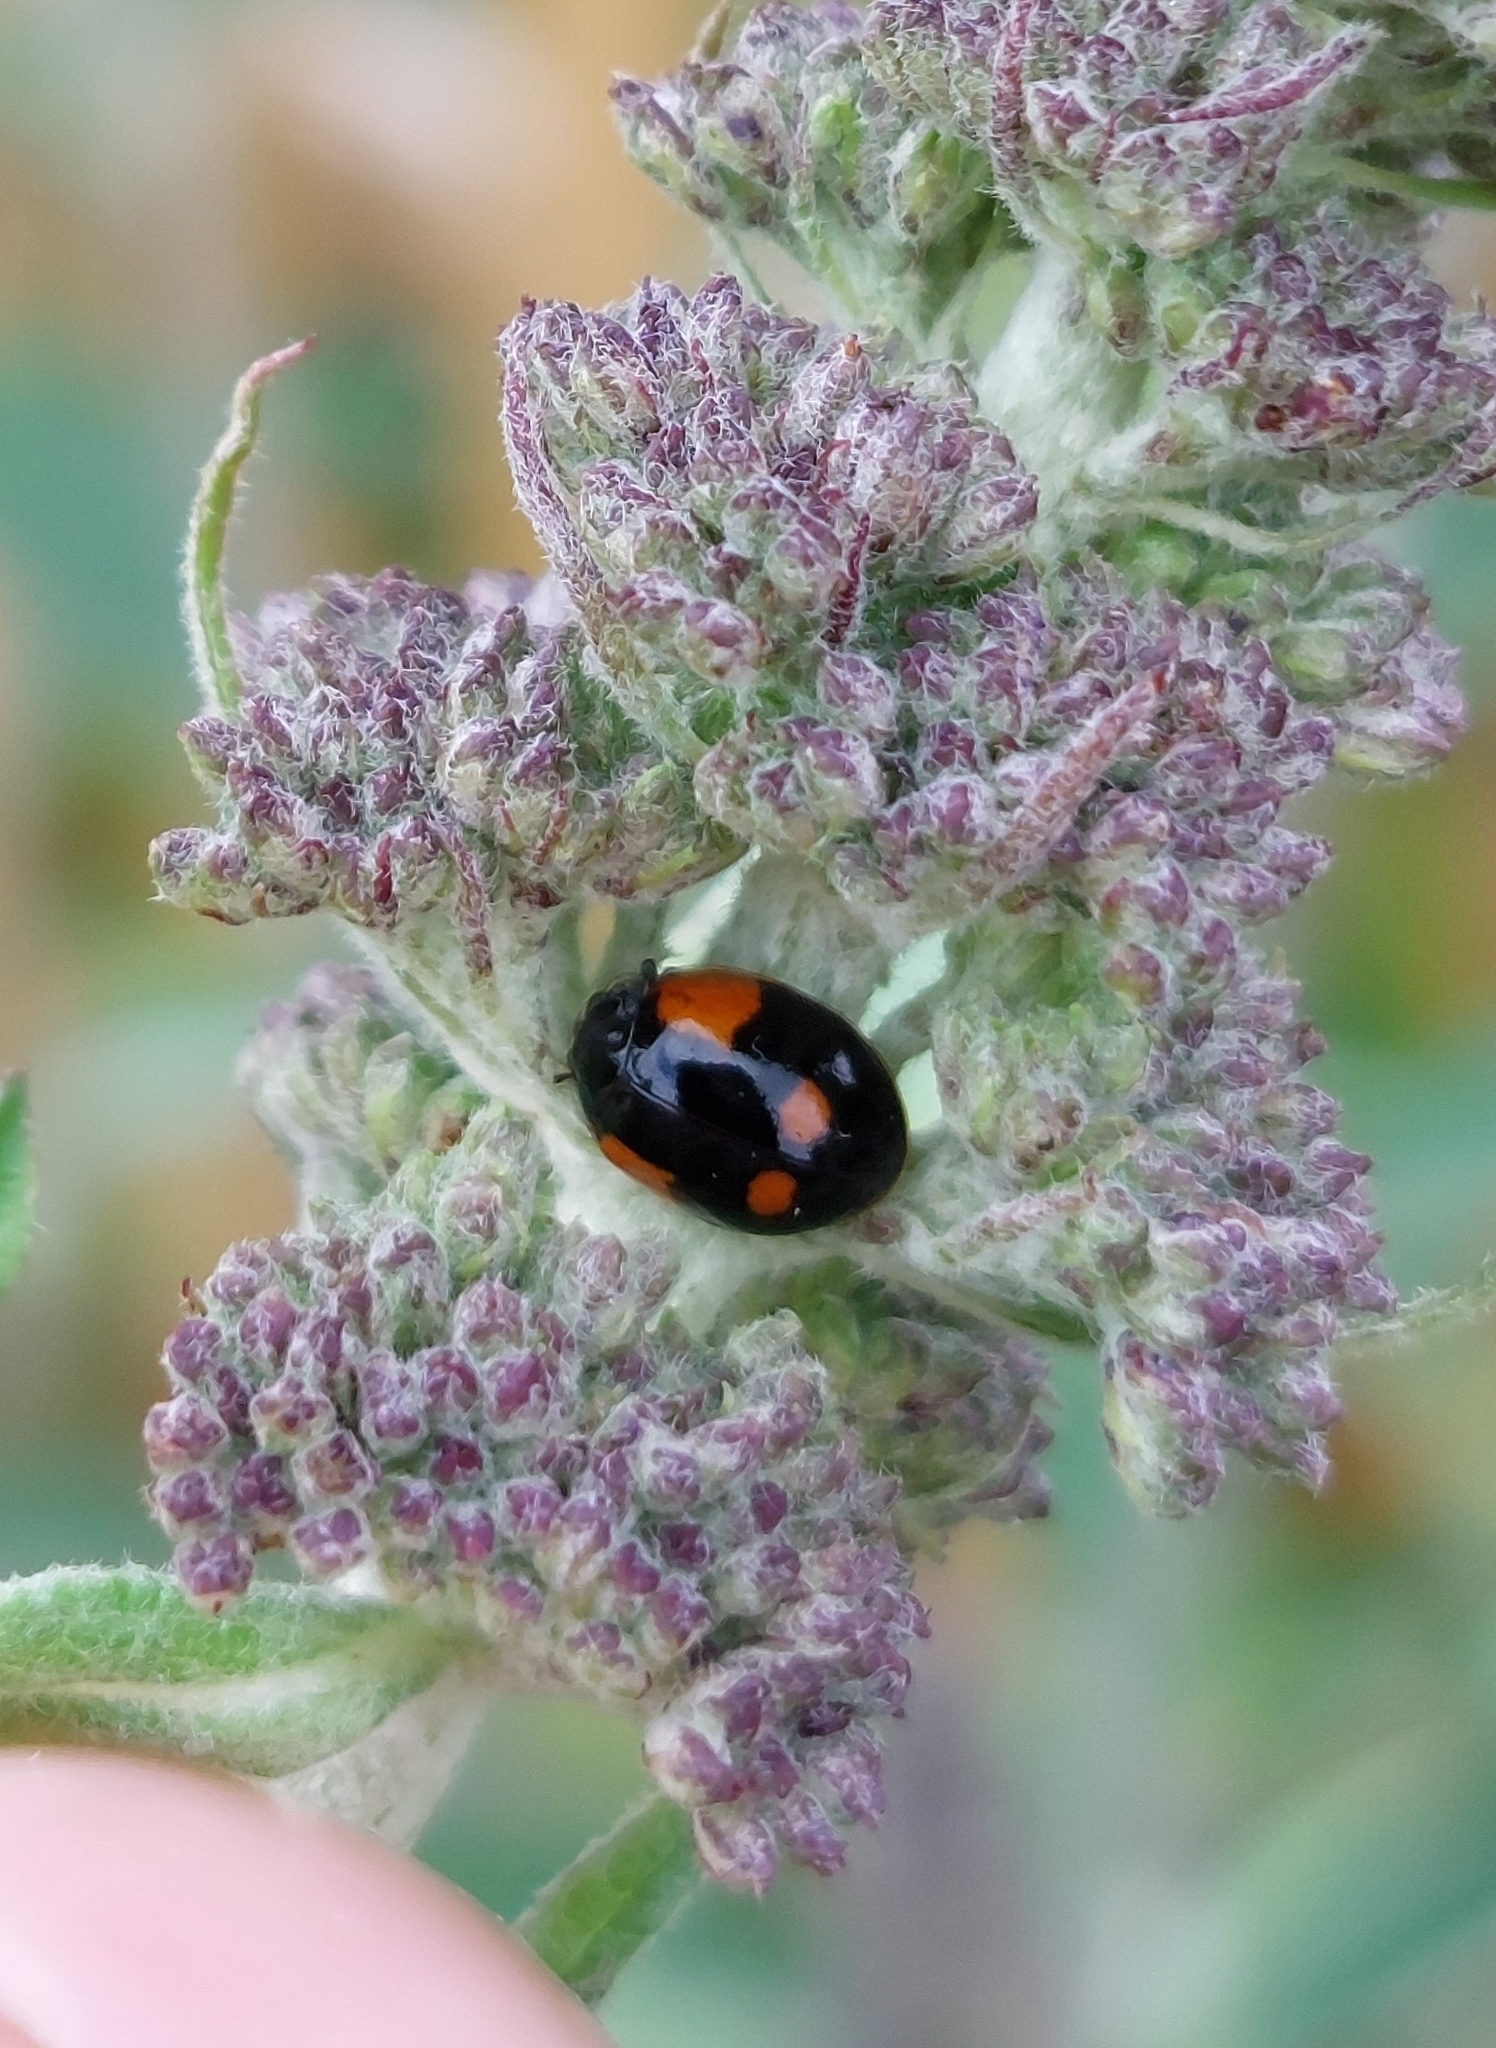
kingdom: Animalia
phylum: Arthropoda
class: Insecta
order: Coleoptera
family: Coccinellidae
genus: Adalia
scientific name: Adalia bipunctata
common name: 2-spot ladybird
